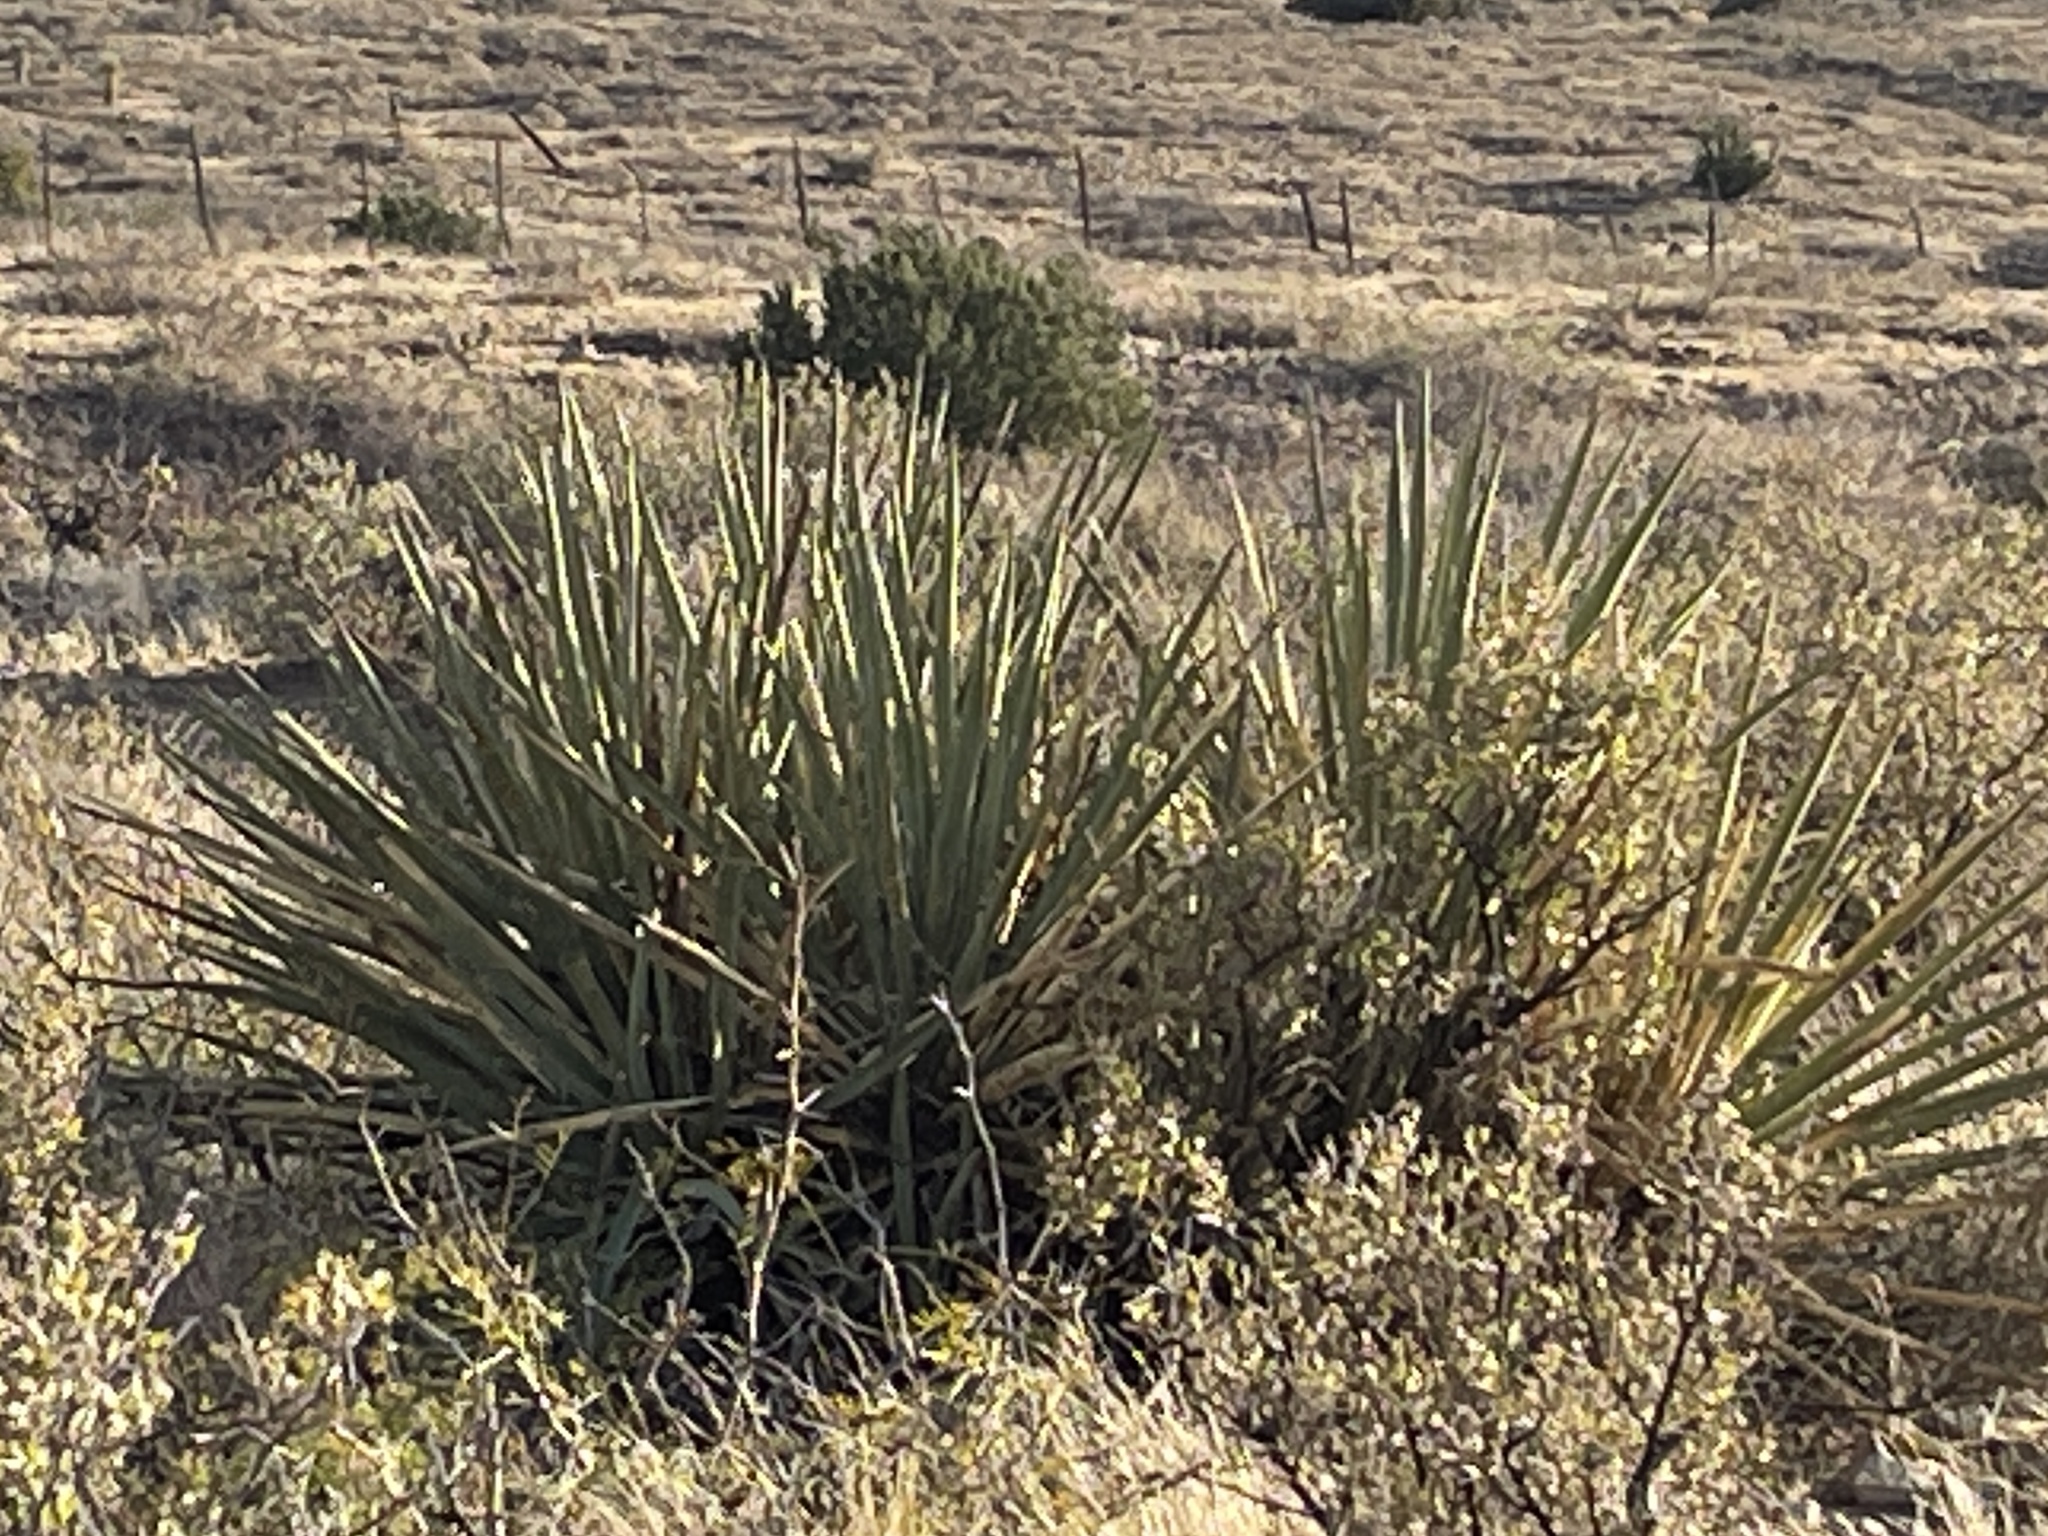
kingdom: Plantae
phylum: Tracheophyta
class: Liliopsida
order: Asparagales
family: Asparagaceae
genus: Yucca
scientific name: Yucca baccata
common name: Banana yucca
